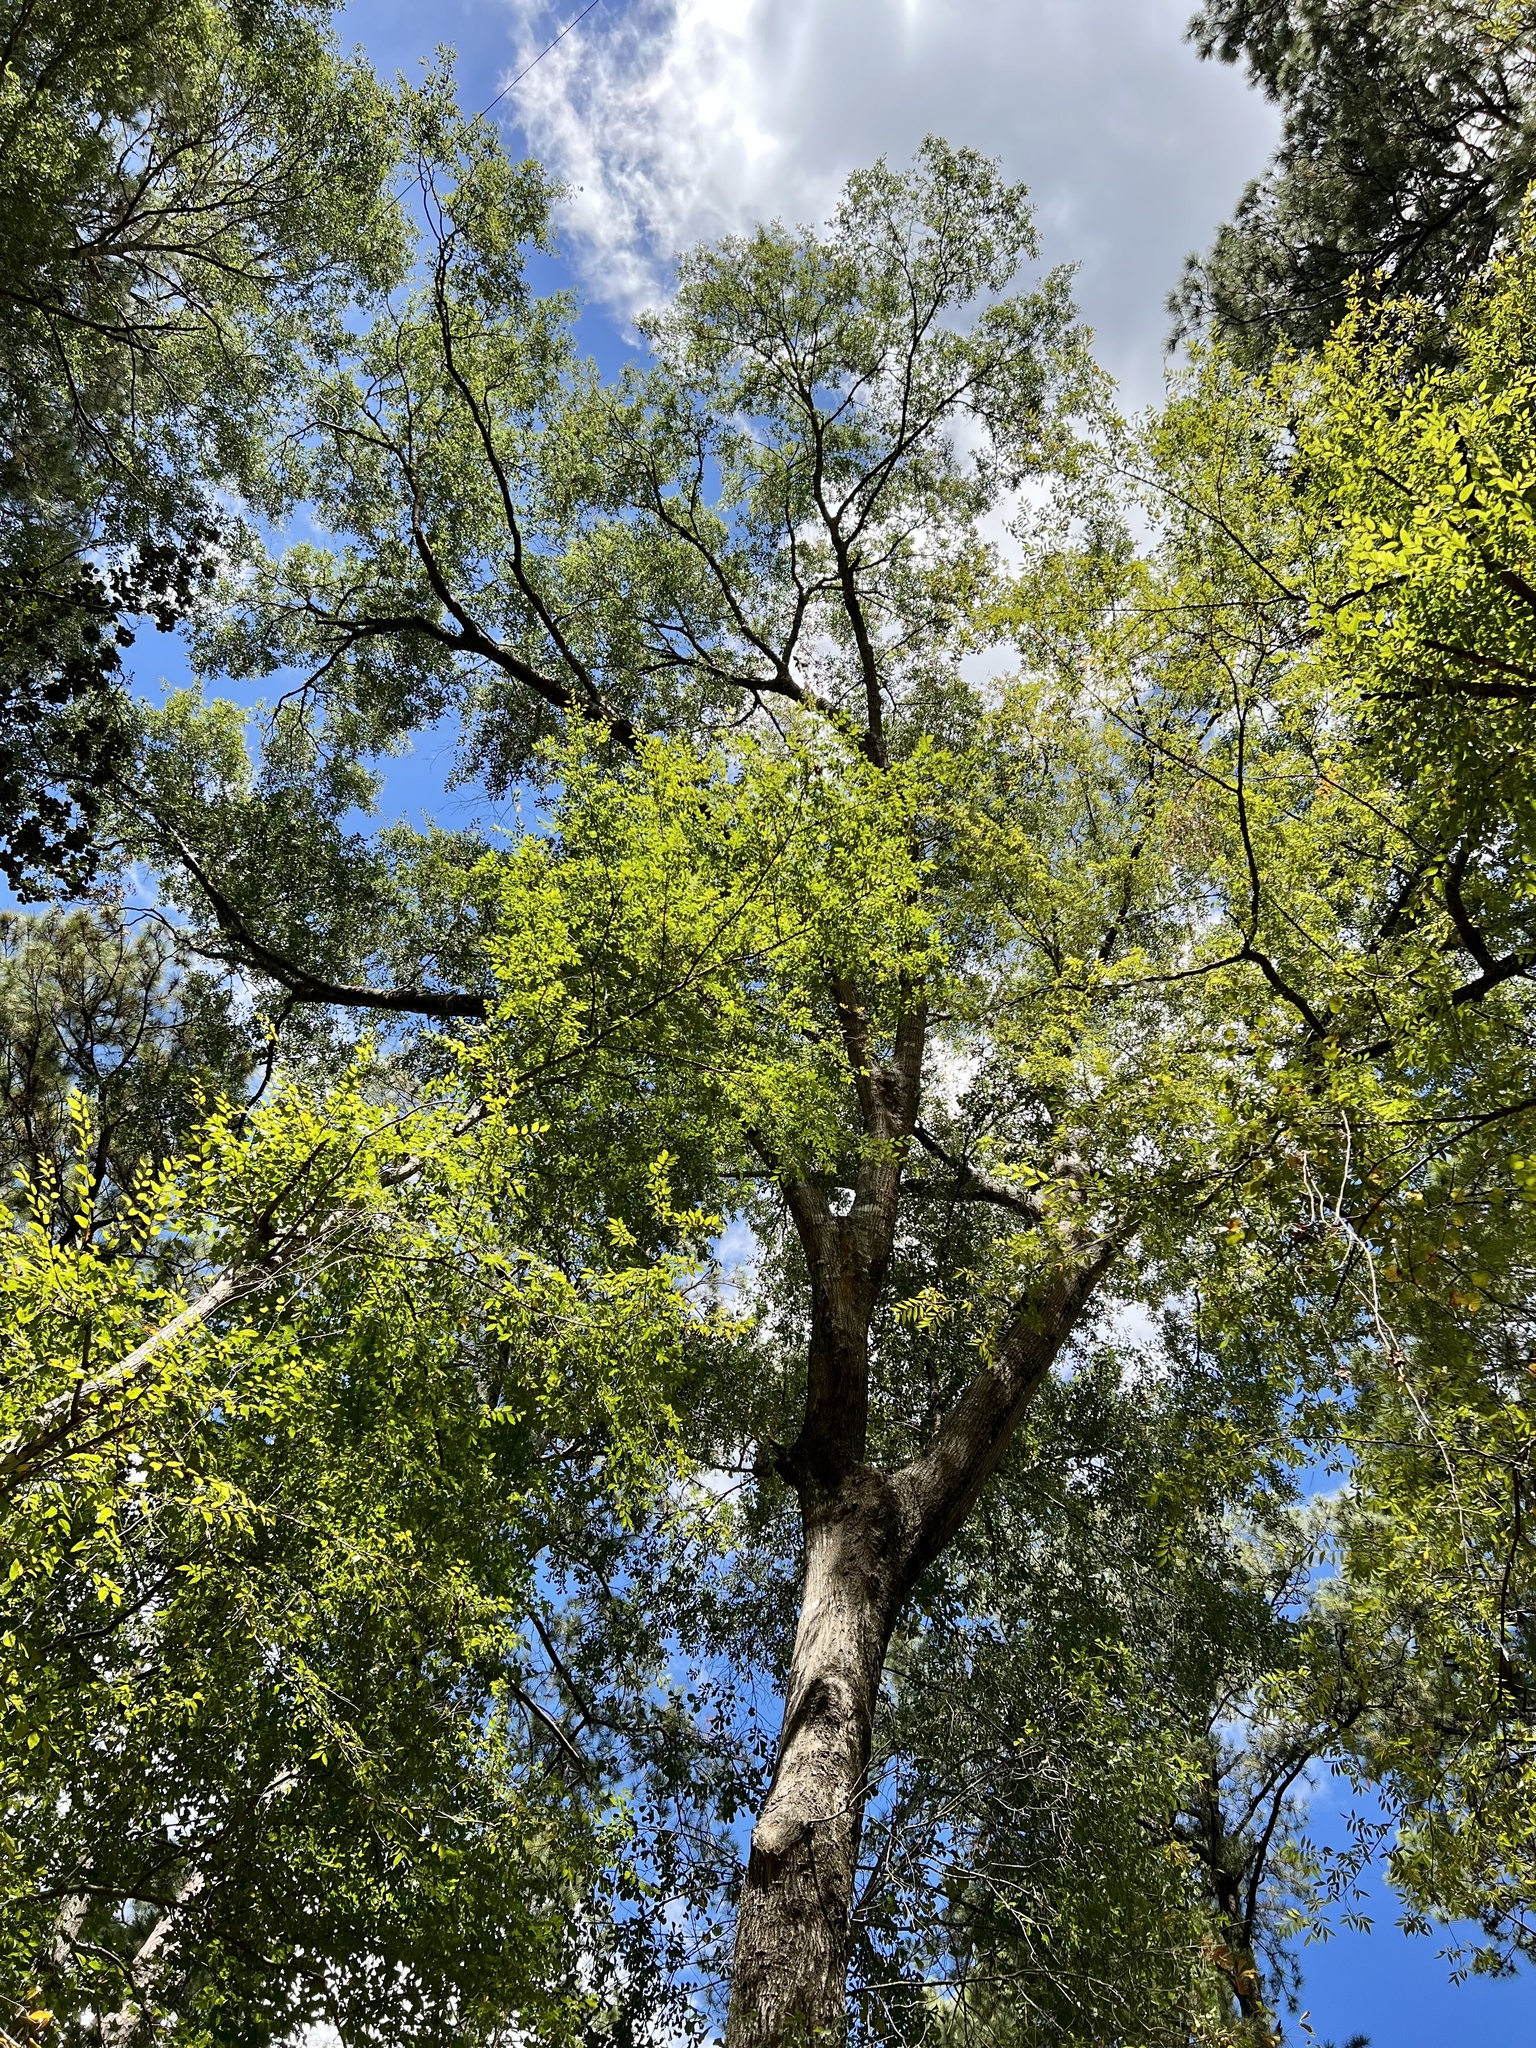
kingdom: Plantae
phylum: Tracheophyta
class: Magnoliopsida
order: Fagales
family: Fagaceae
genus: Quercus
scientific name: Quercus nigra
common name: Water oak
